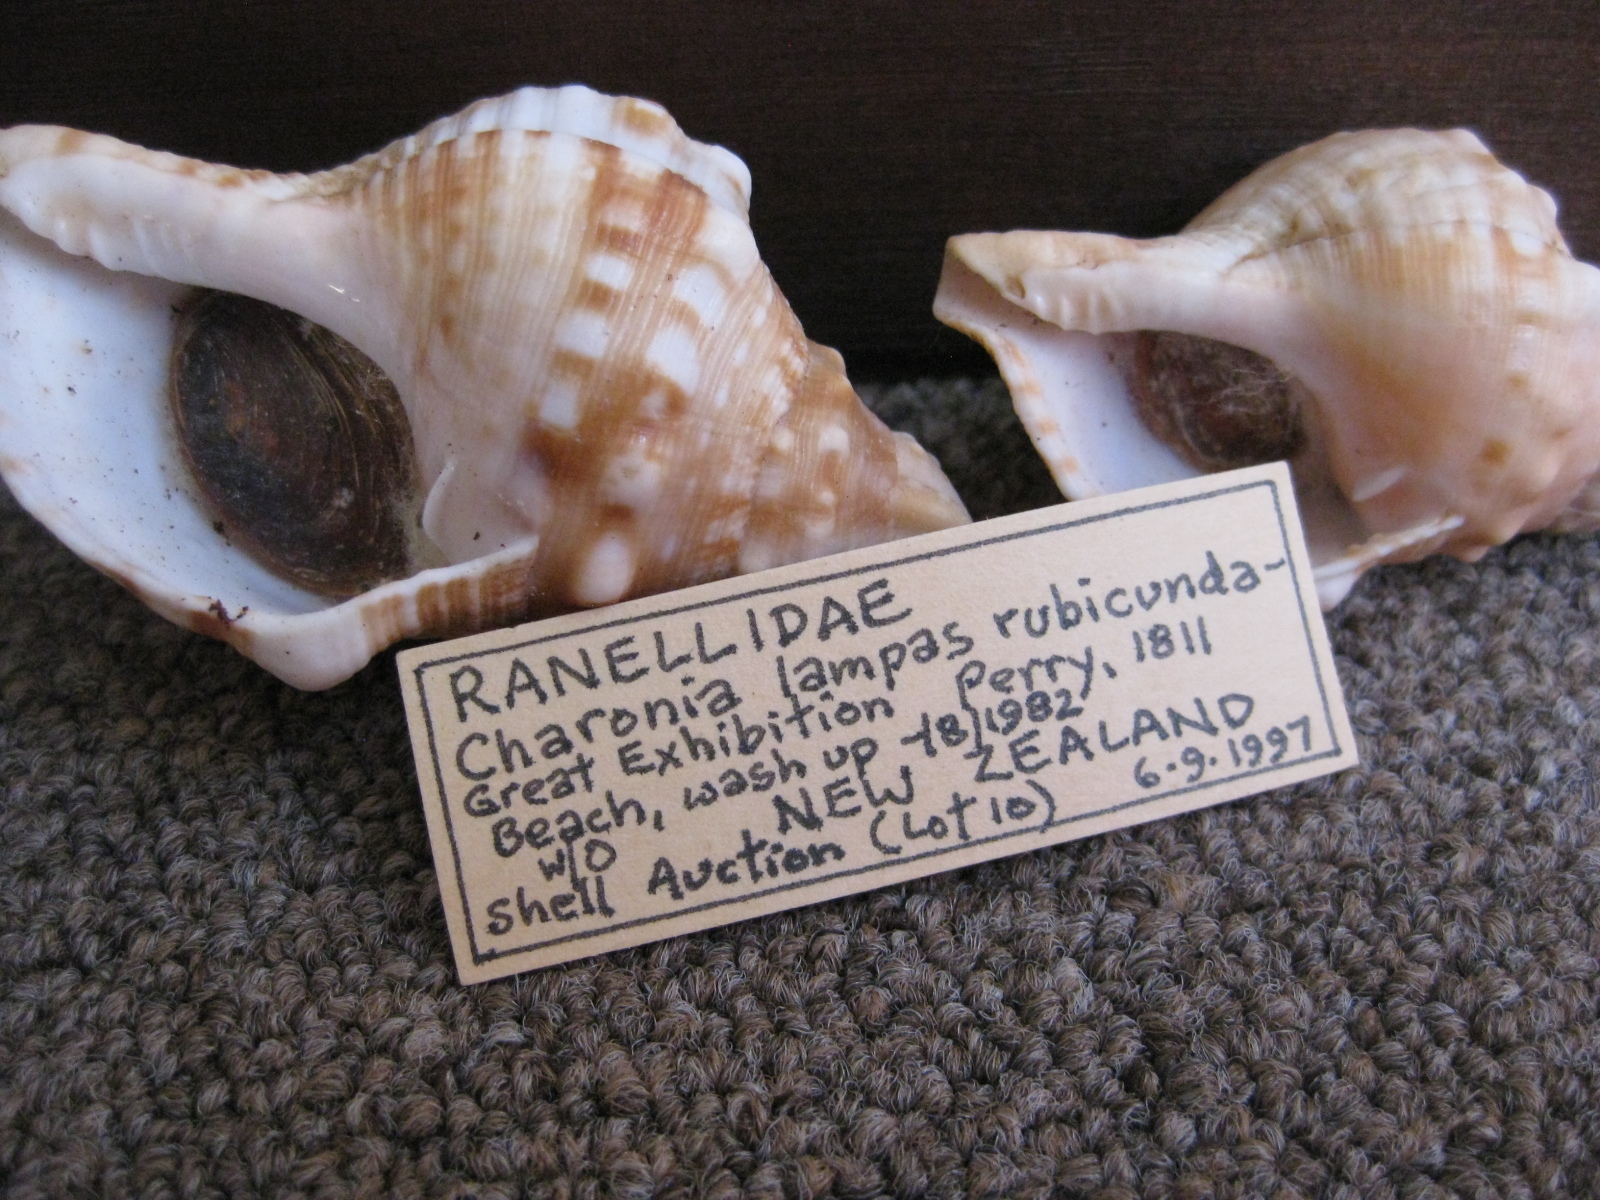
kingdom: Animalia
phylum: Mollusca
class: Gastropoda
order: Littorinimorpha
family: Charoniidae
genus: Charonia
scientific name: Charonia lampas
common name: Knobbed triton
